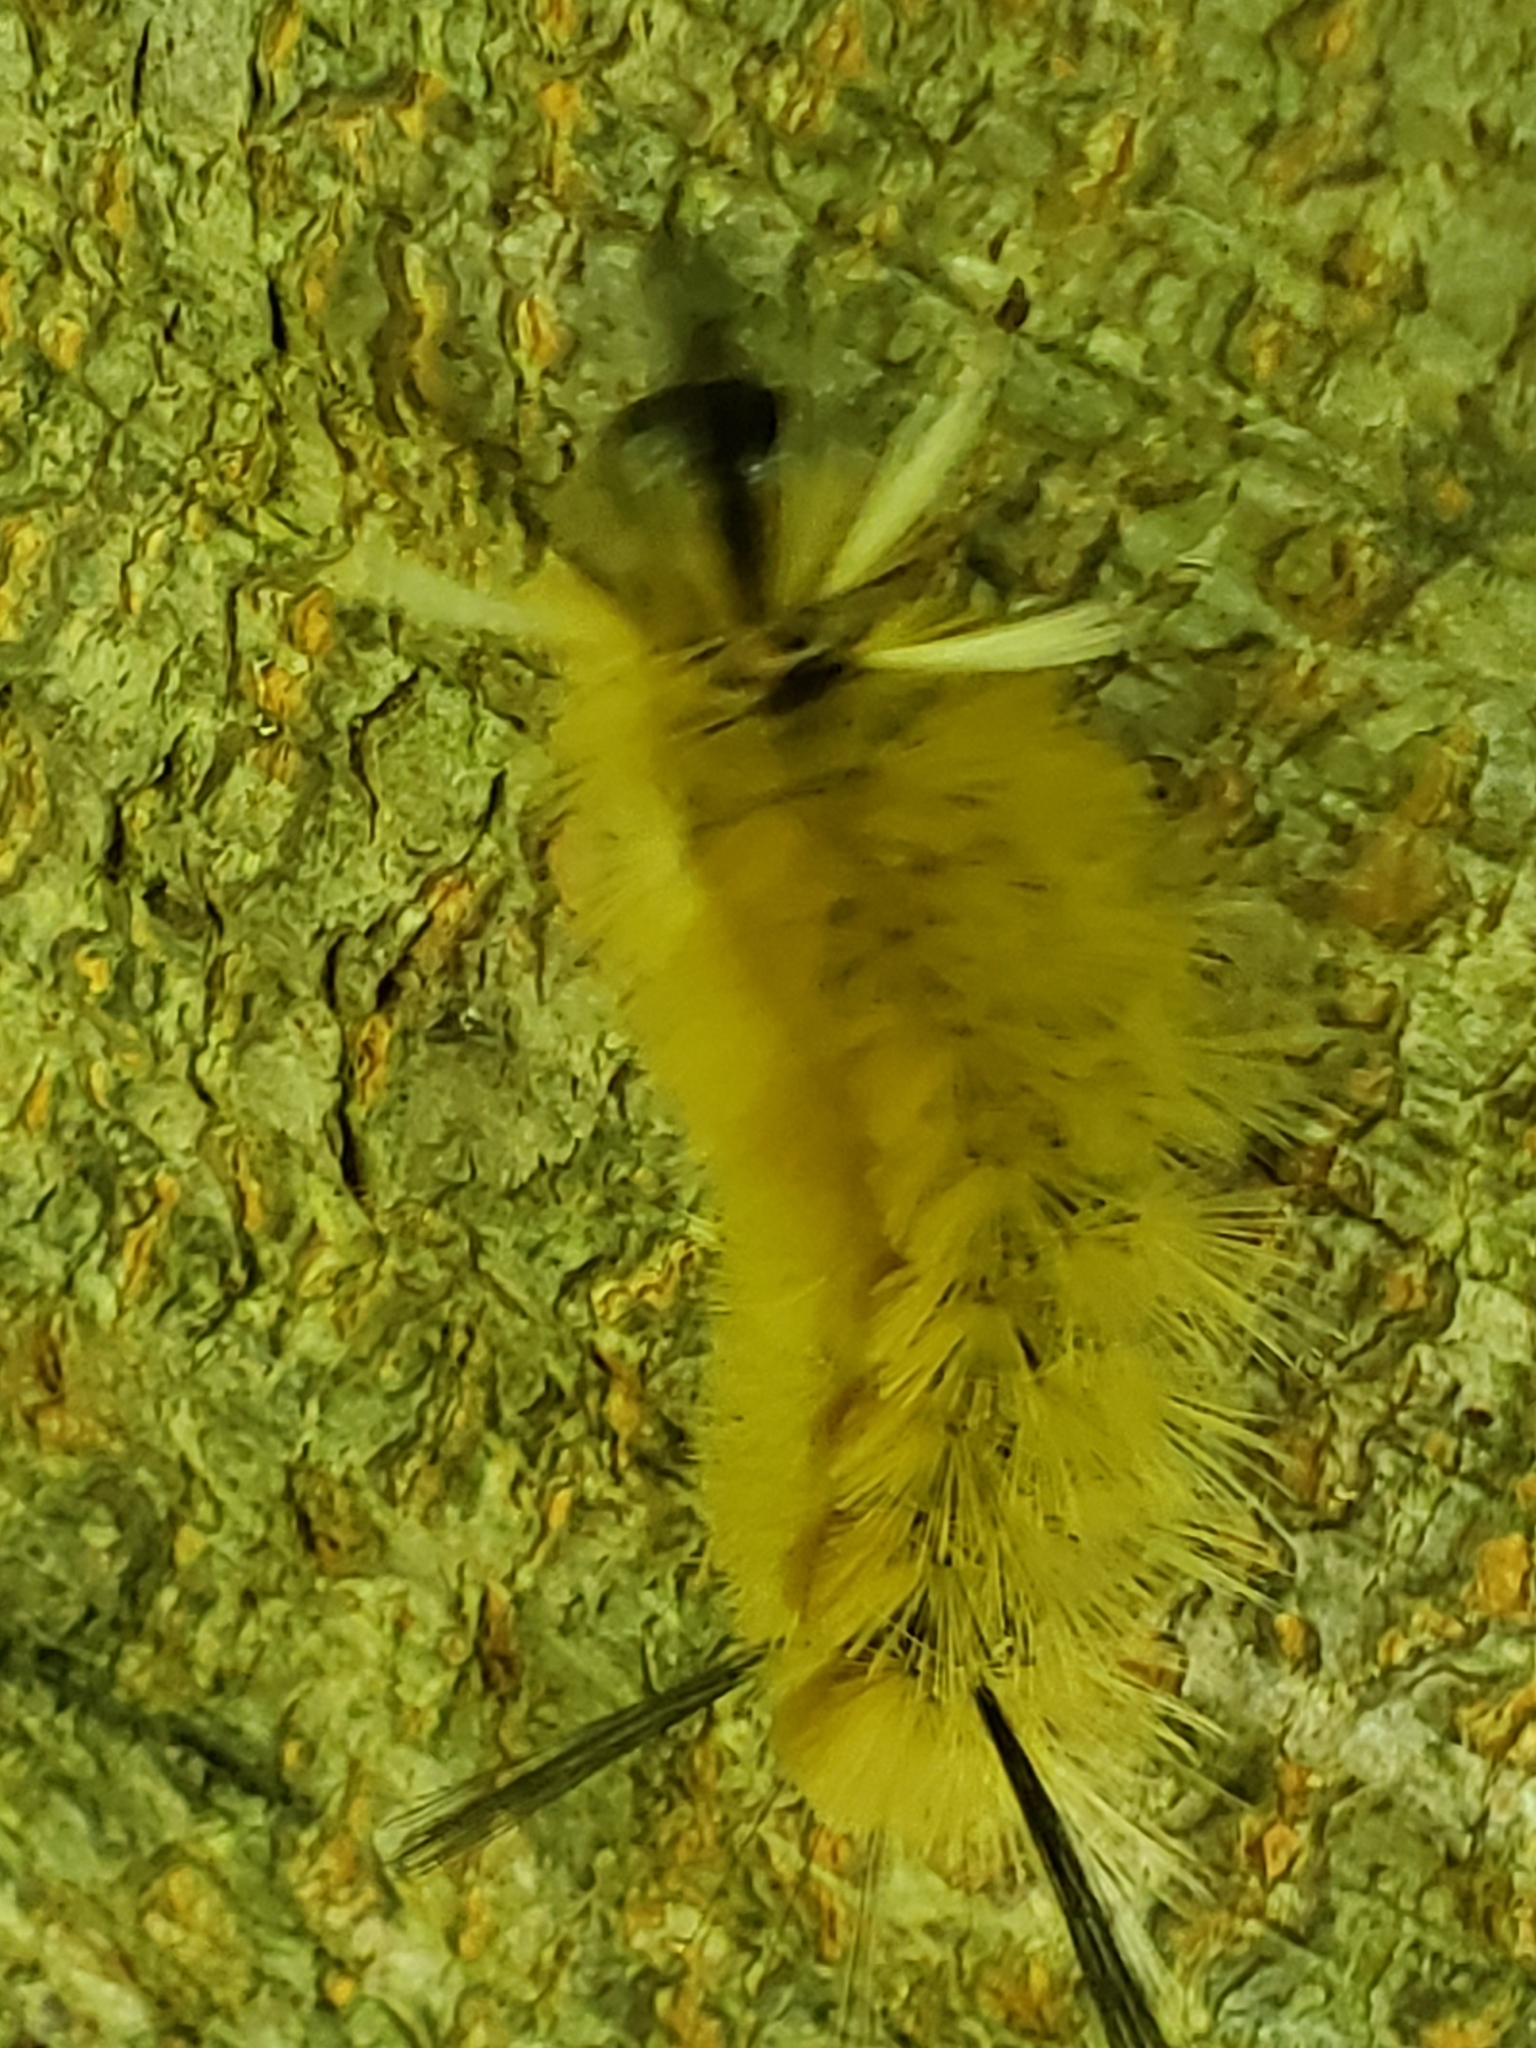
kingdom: Animalia
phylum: Arthropoda
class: Insecta
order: Lepidoptera
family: Erebidae
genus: Halysidota
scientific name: Halysidota tessellaris
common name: Banded tussock moth
